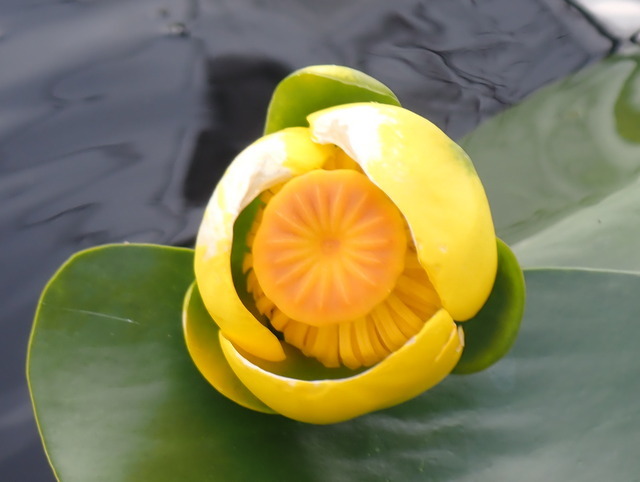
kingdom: Plantae
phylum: Tracheophyta
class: Magnoliopsida
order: Nymphaeales
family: Nymphaeaceae
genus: Nuphar
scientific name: Nuphar advena
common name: Spatter-dock
